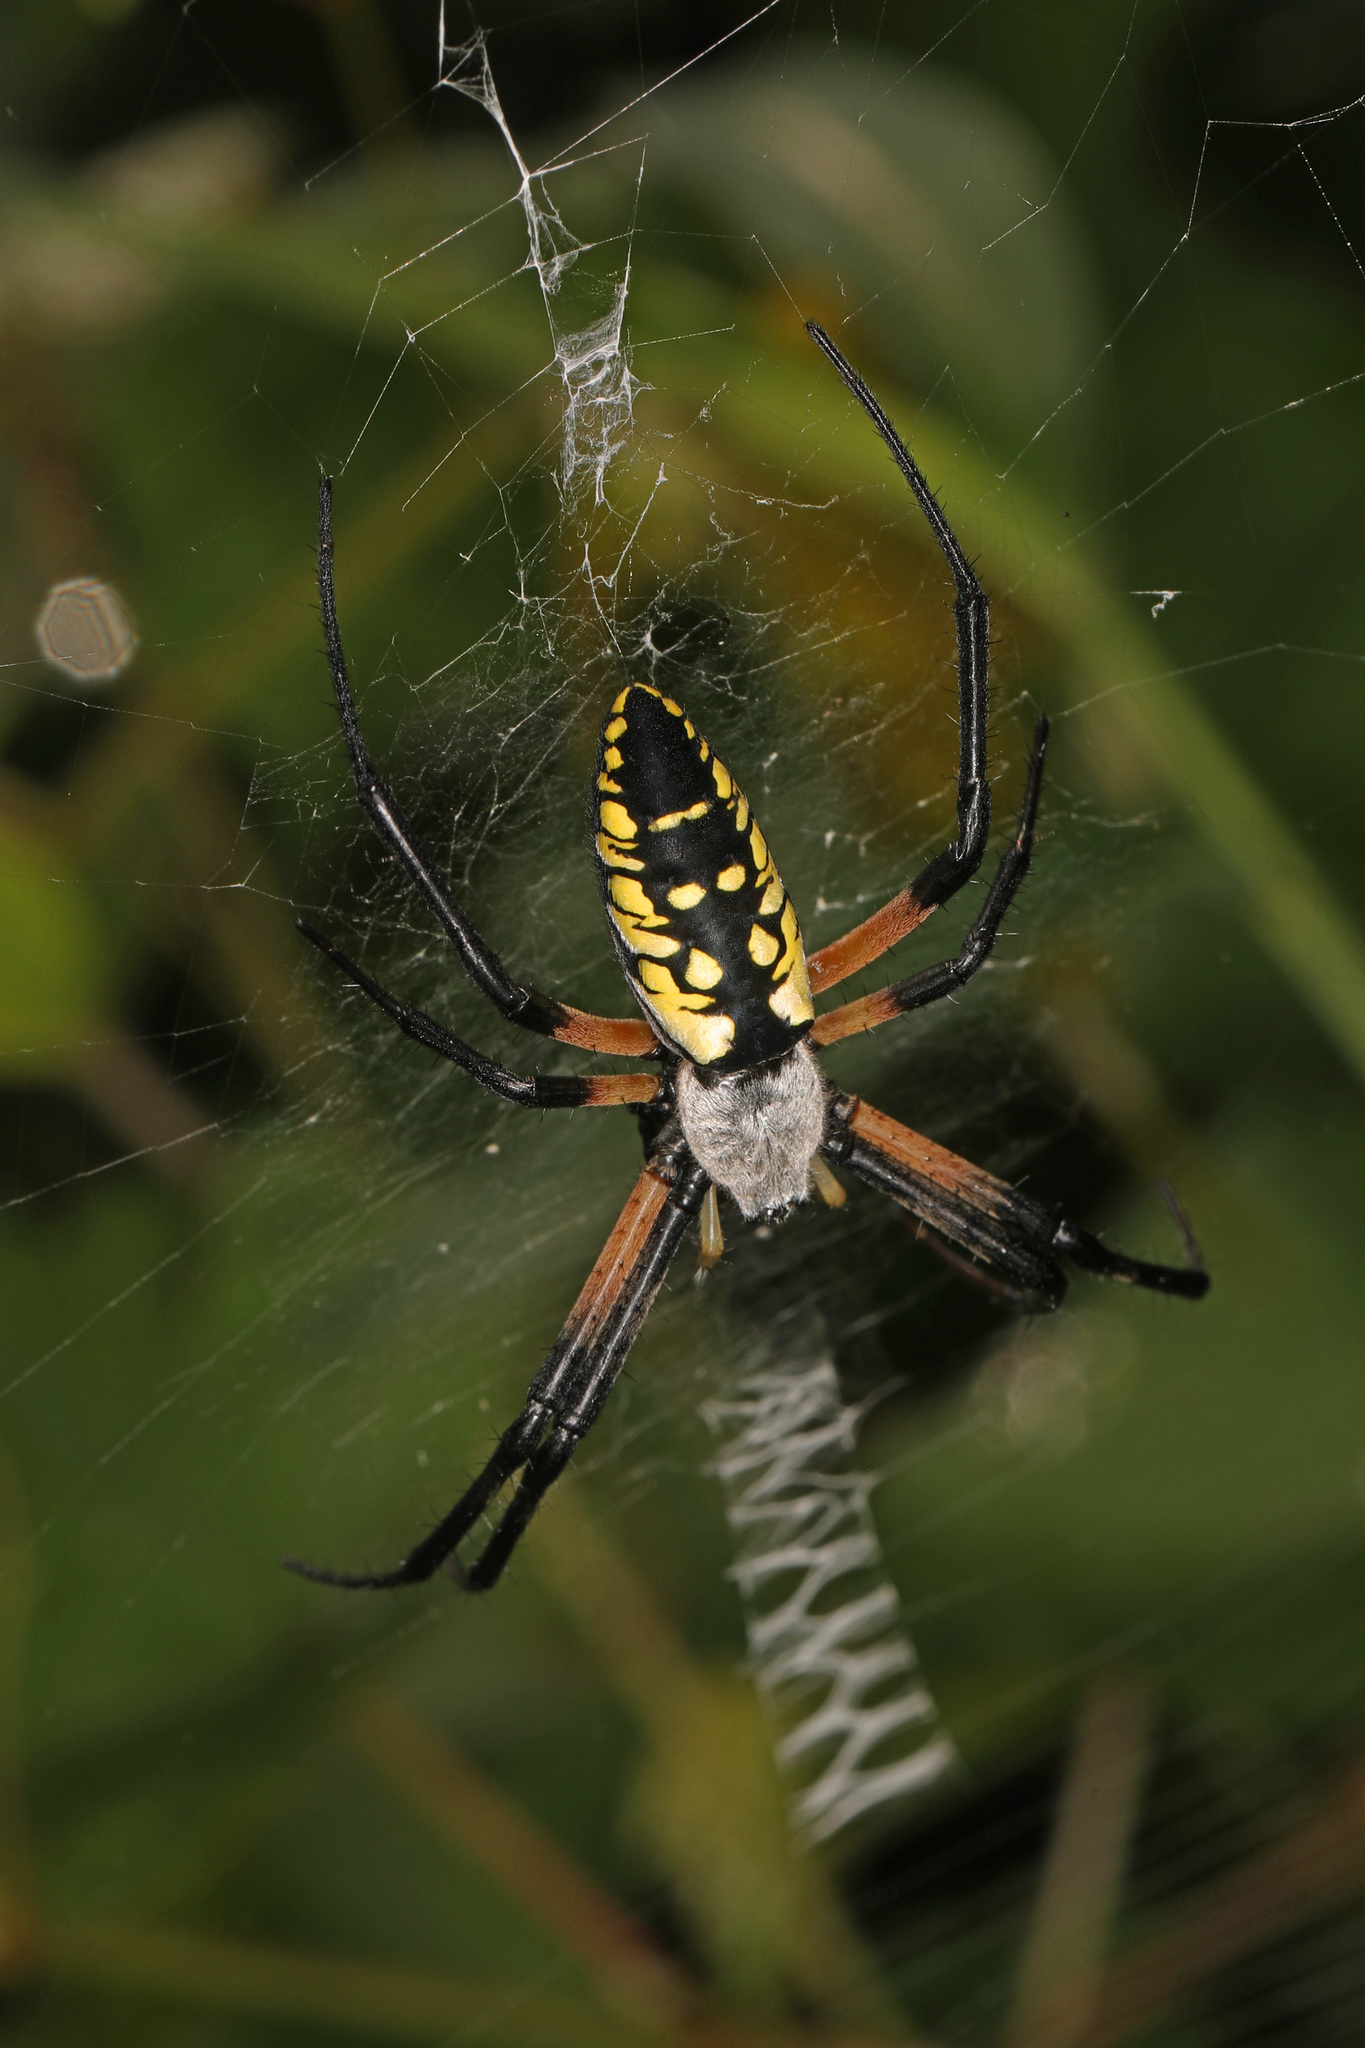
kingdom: Animalia
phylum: Arthropoda
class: Arachnida
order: Araneae
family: Araneidae
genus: Argiope
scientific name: Argiope aurantia
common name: Orb weavers
